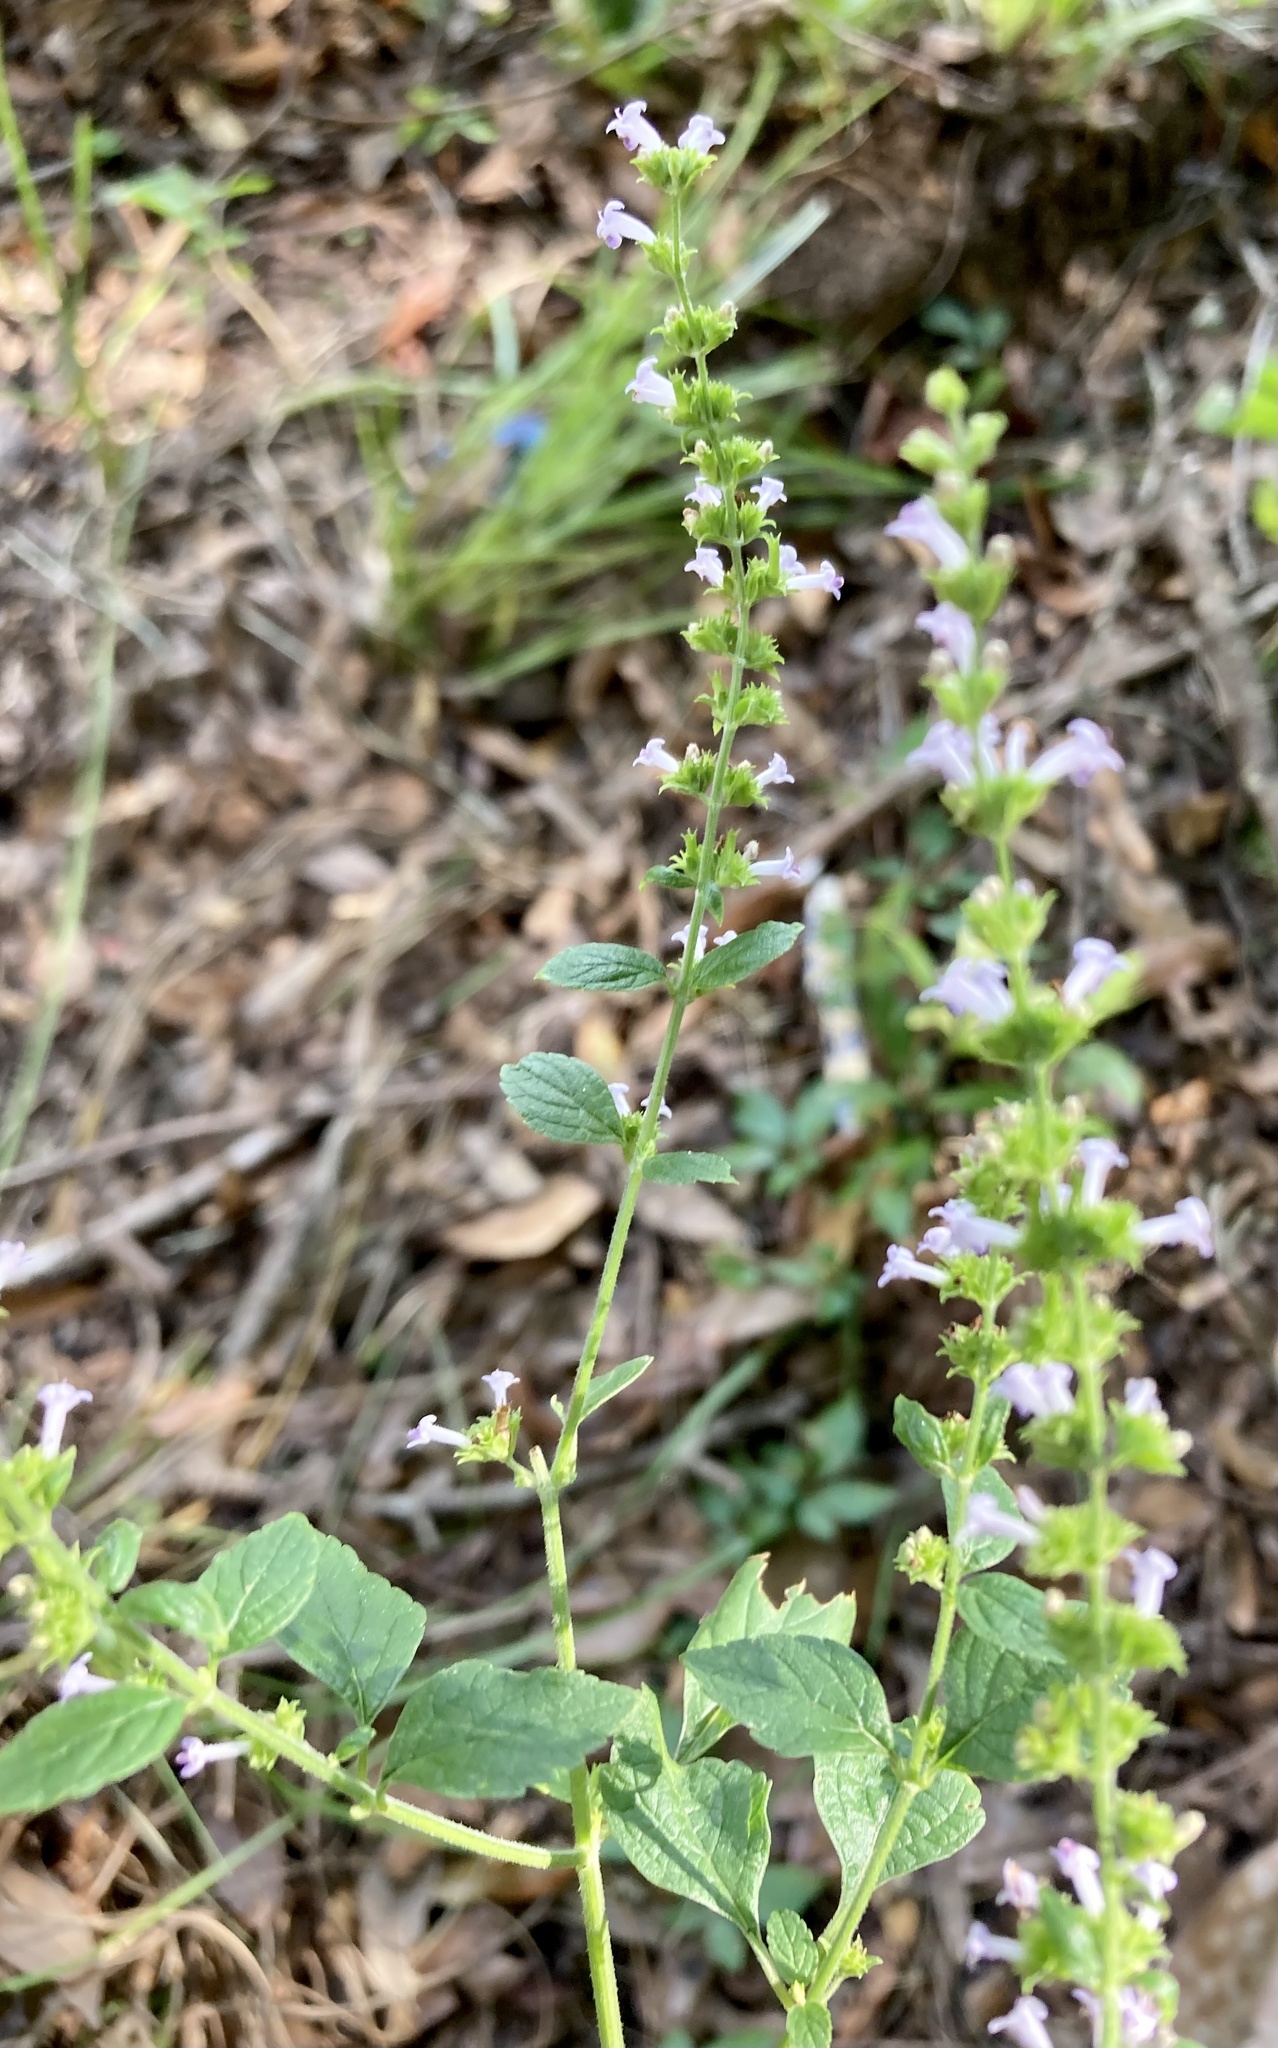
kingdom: Plantae
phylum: Tracheophyta
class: Magnoliopsida
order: Lamiales
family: Lamiaceae
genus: Cantinoa
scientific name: Cantinoa mutabilis
